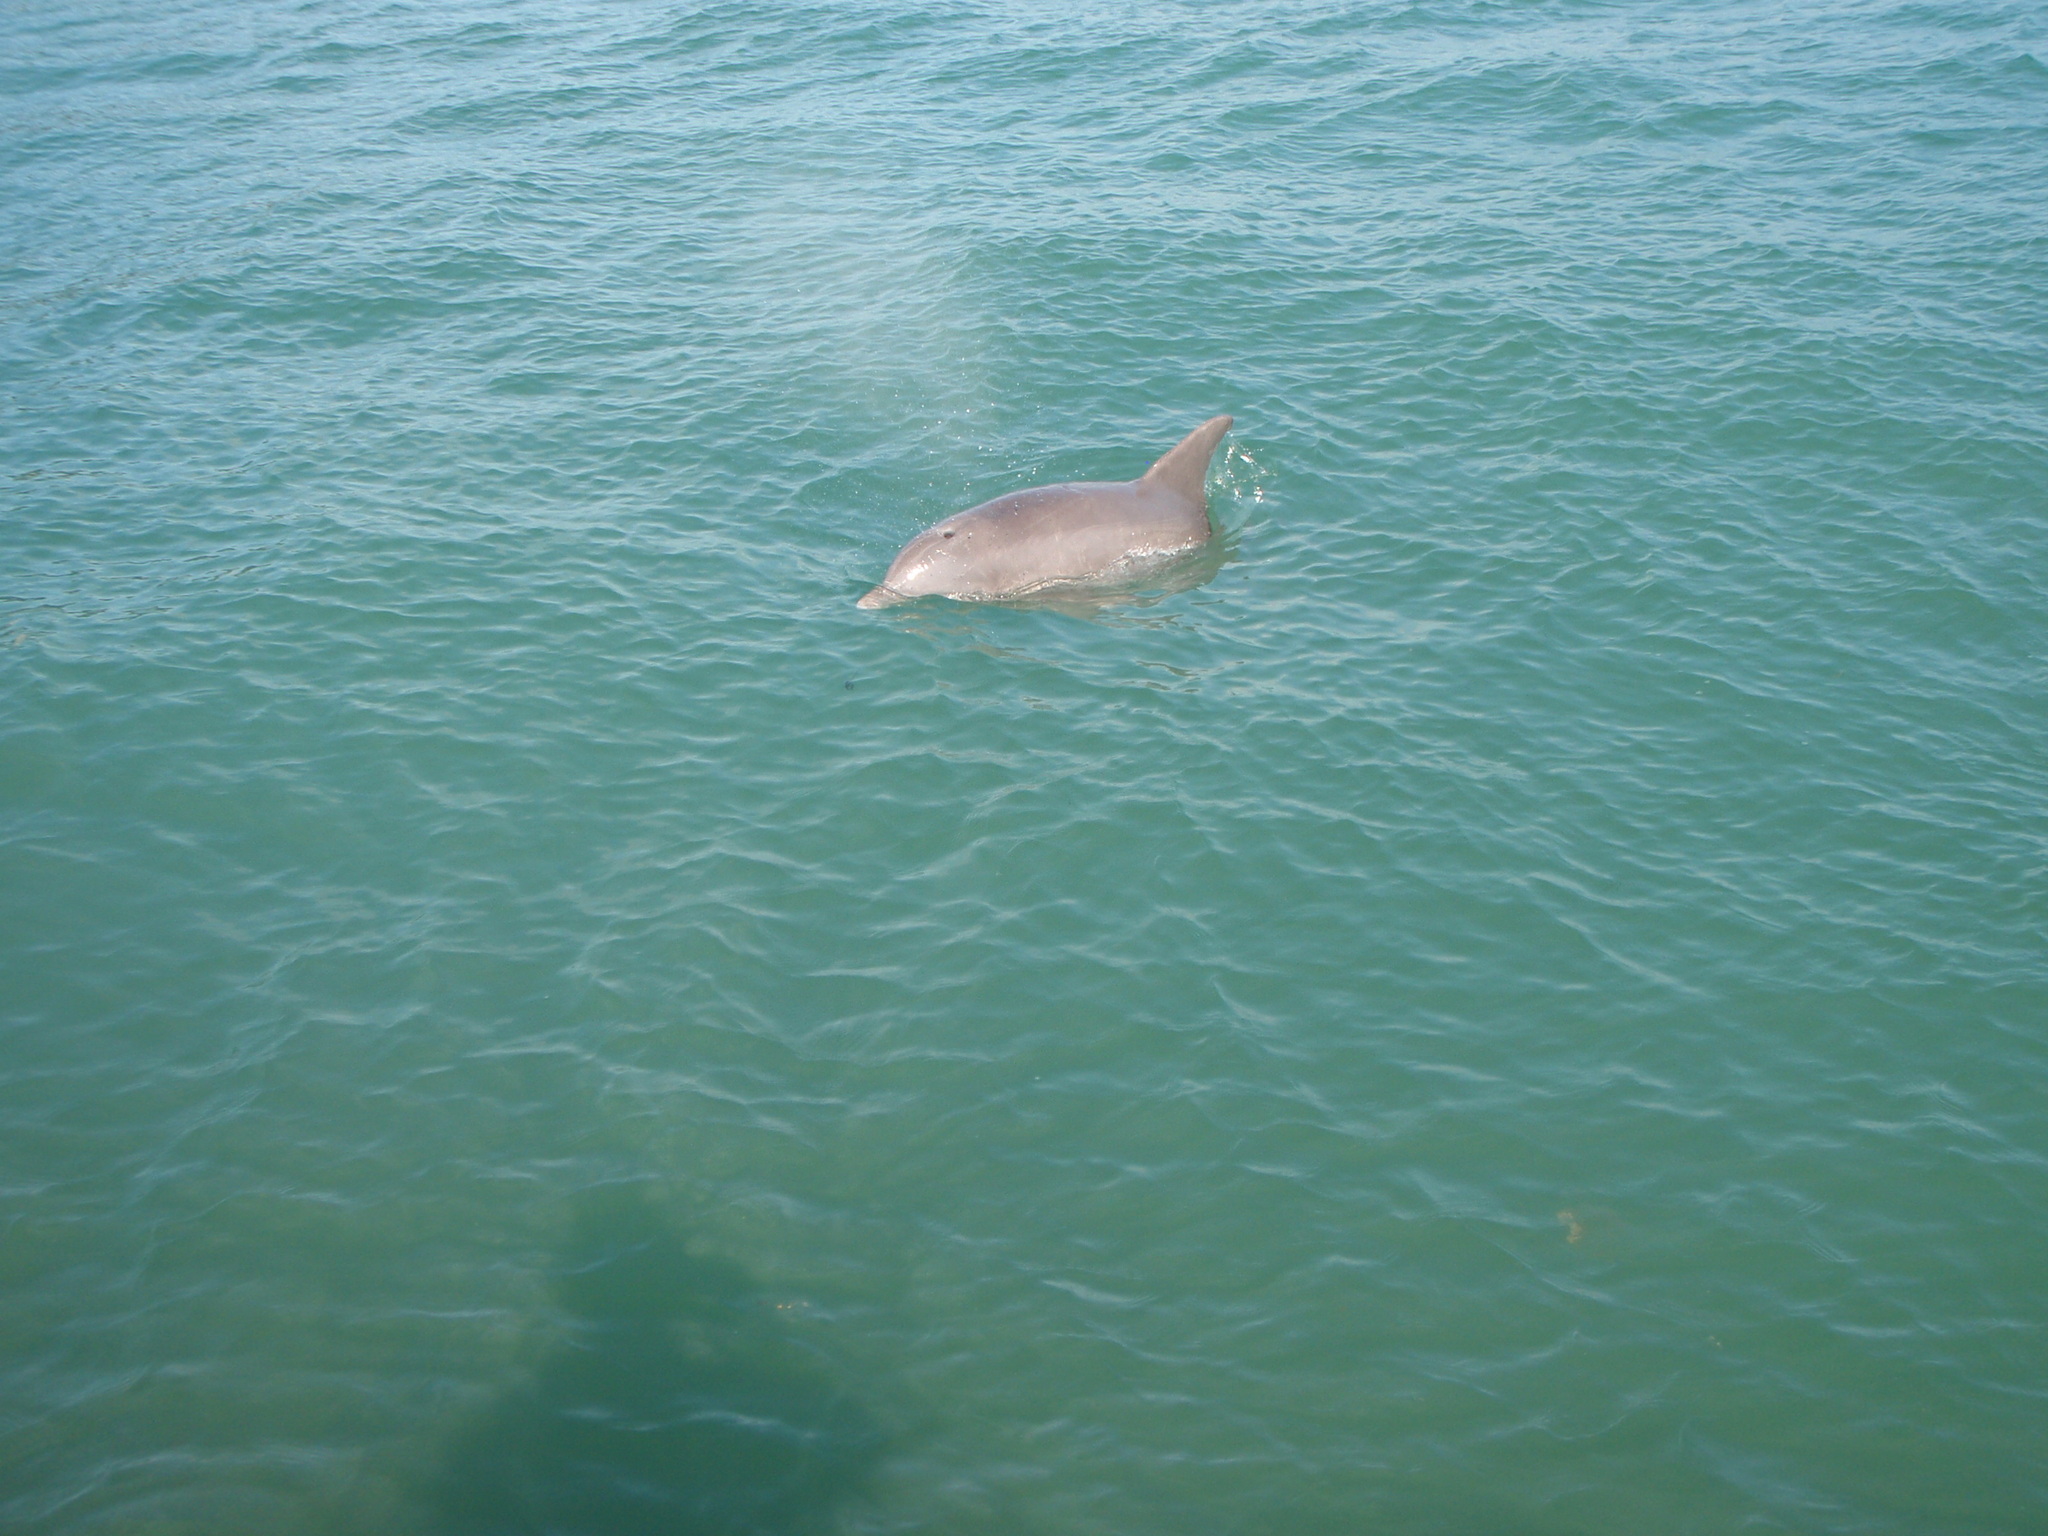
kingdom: Animalia
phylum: Chordata
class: Mammalia
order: Cetacea
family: Delphinidae
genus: Tursiops
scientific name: Tursiops truncatus
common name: Bottlenose dolphin
